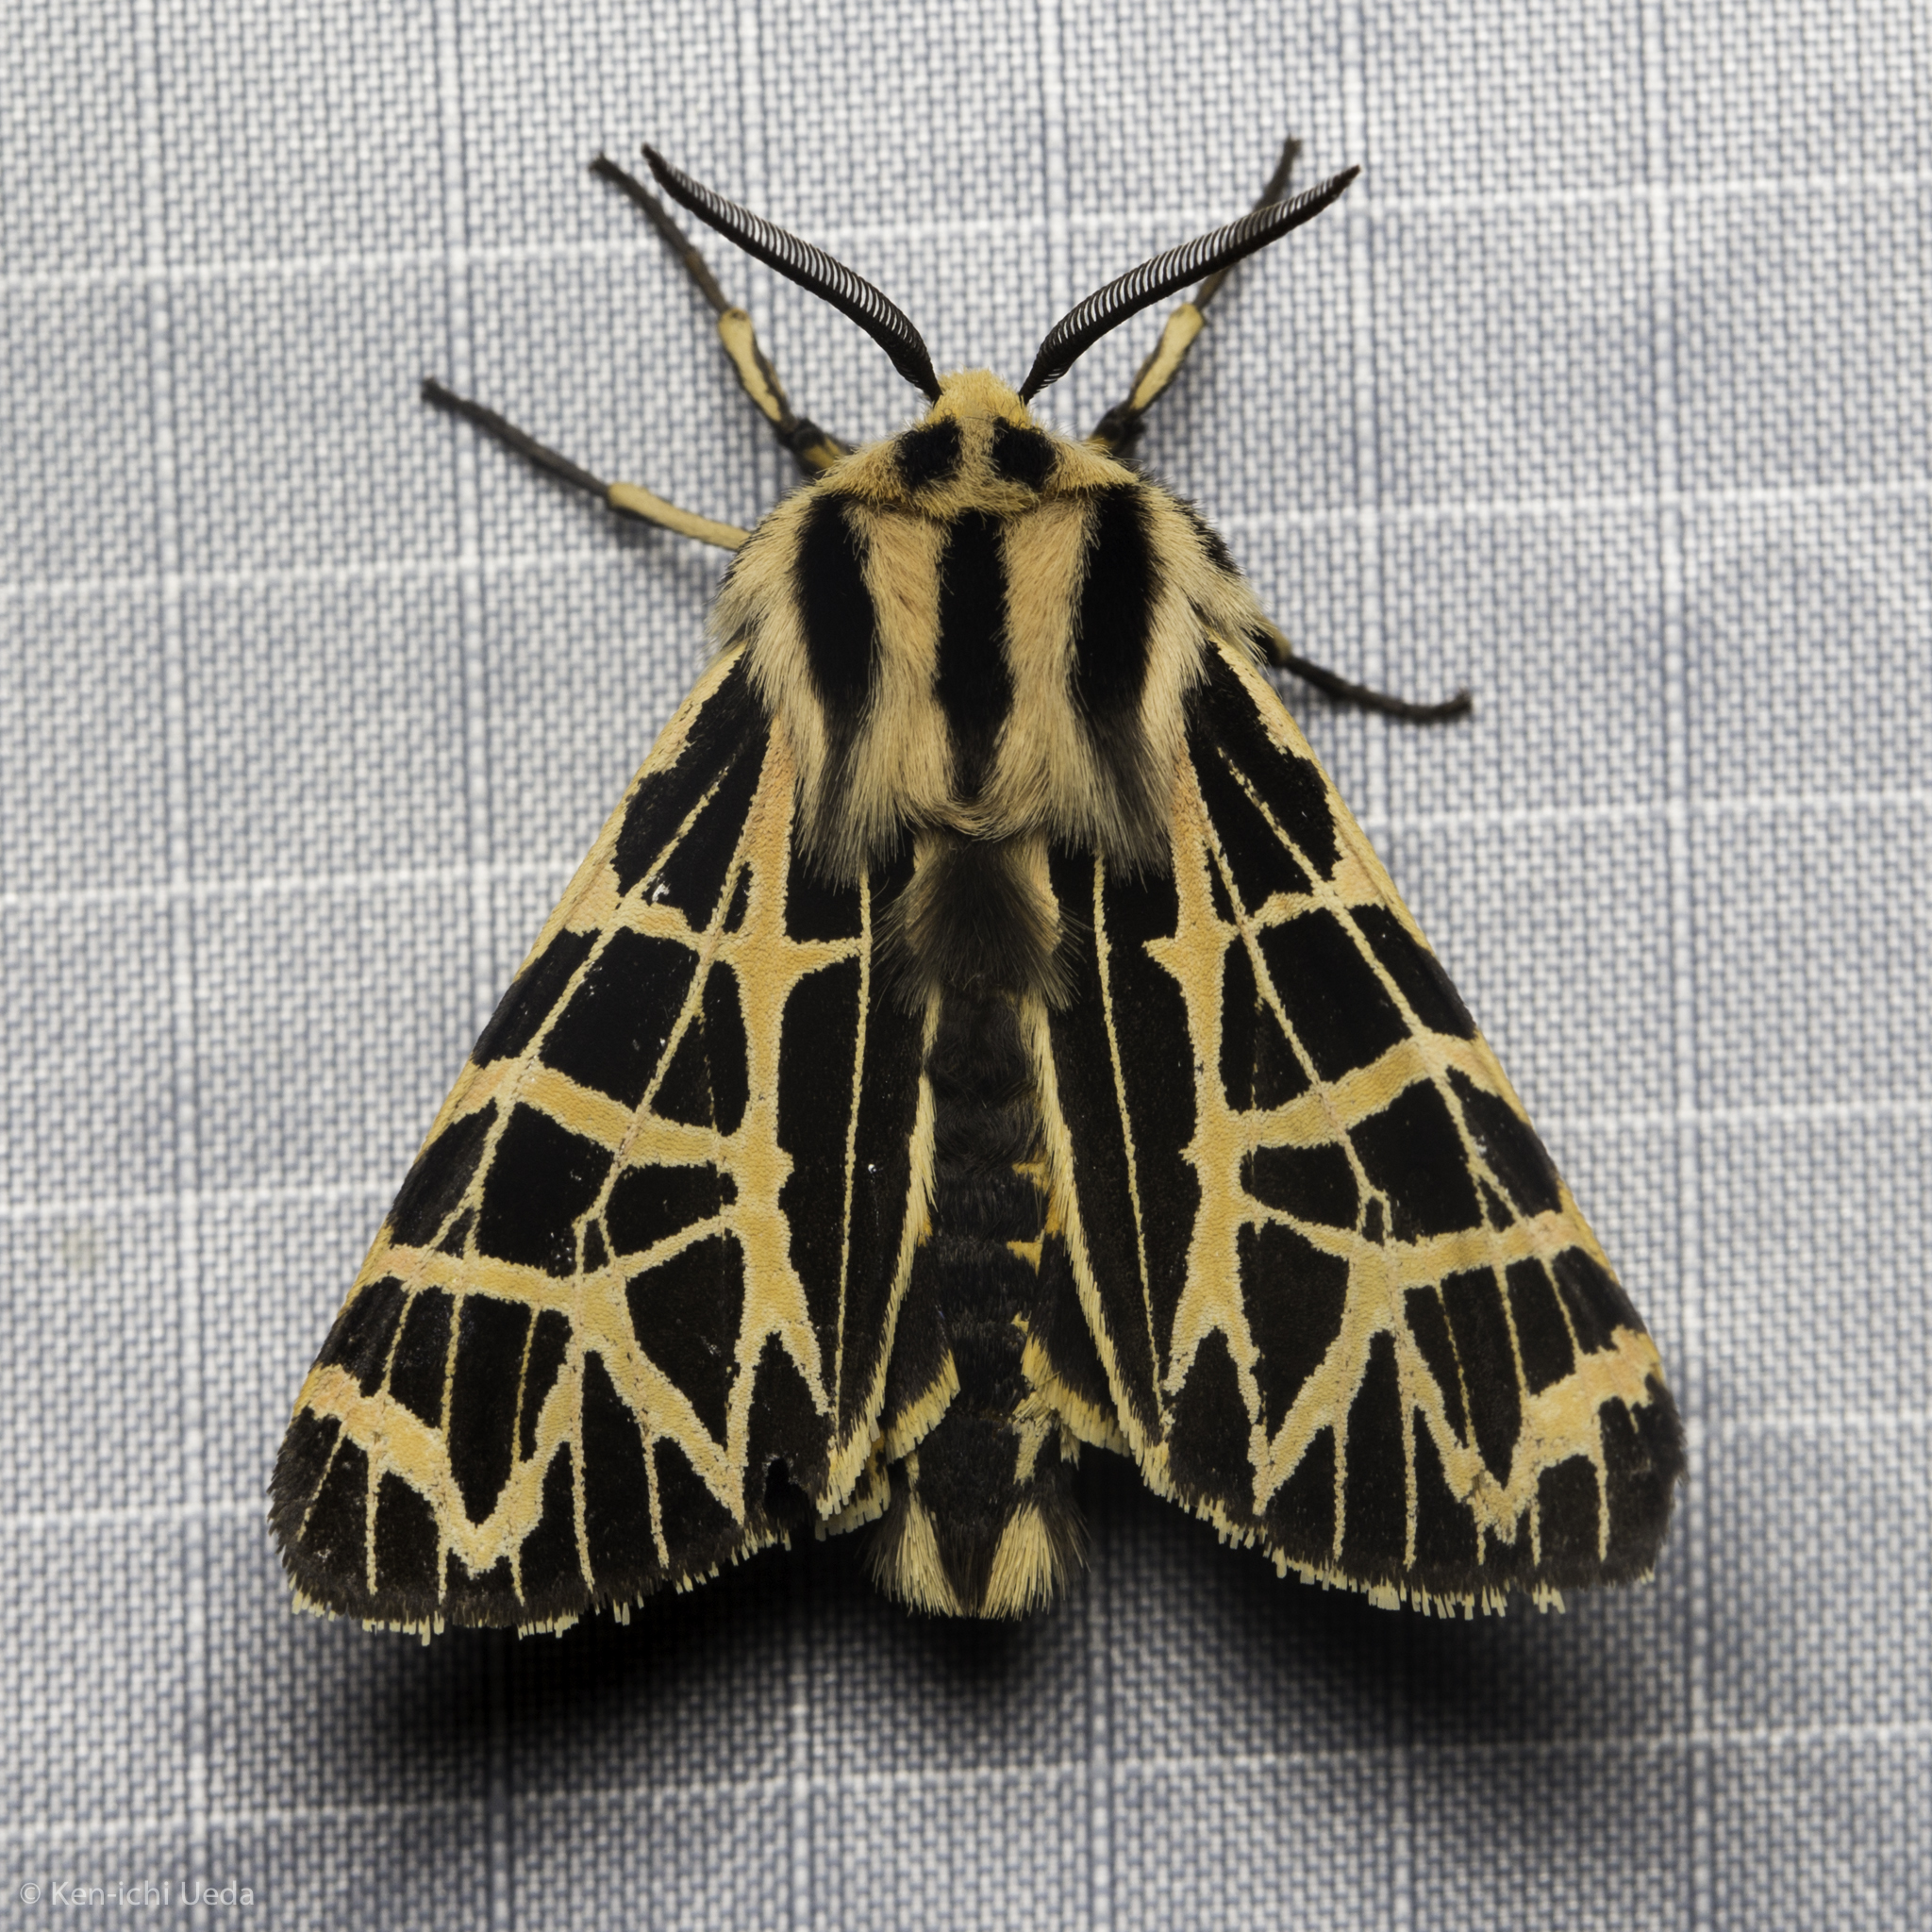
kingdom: Animalia
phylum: Arthropoda
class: Insecta
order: Lepidoptera
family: Erebidae
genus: Apantesis
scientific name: Apantesis
